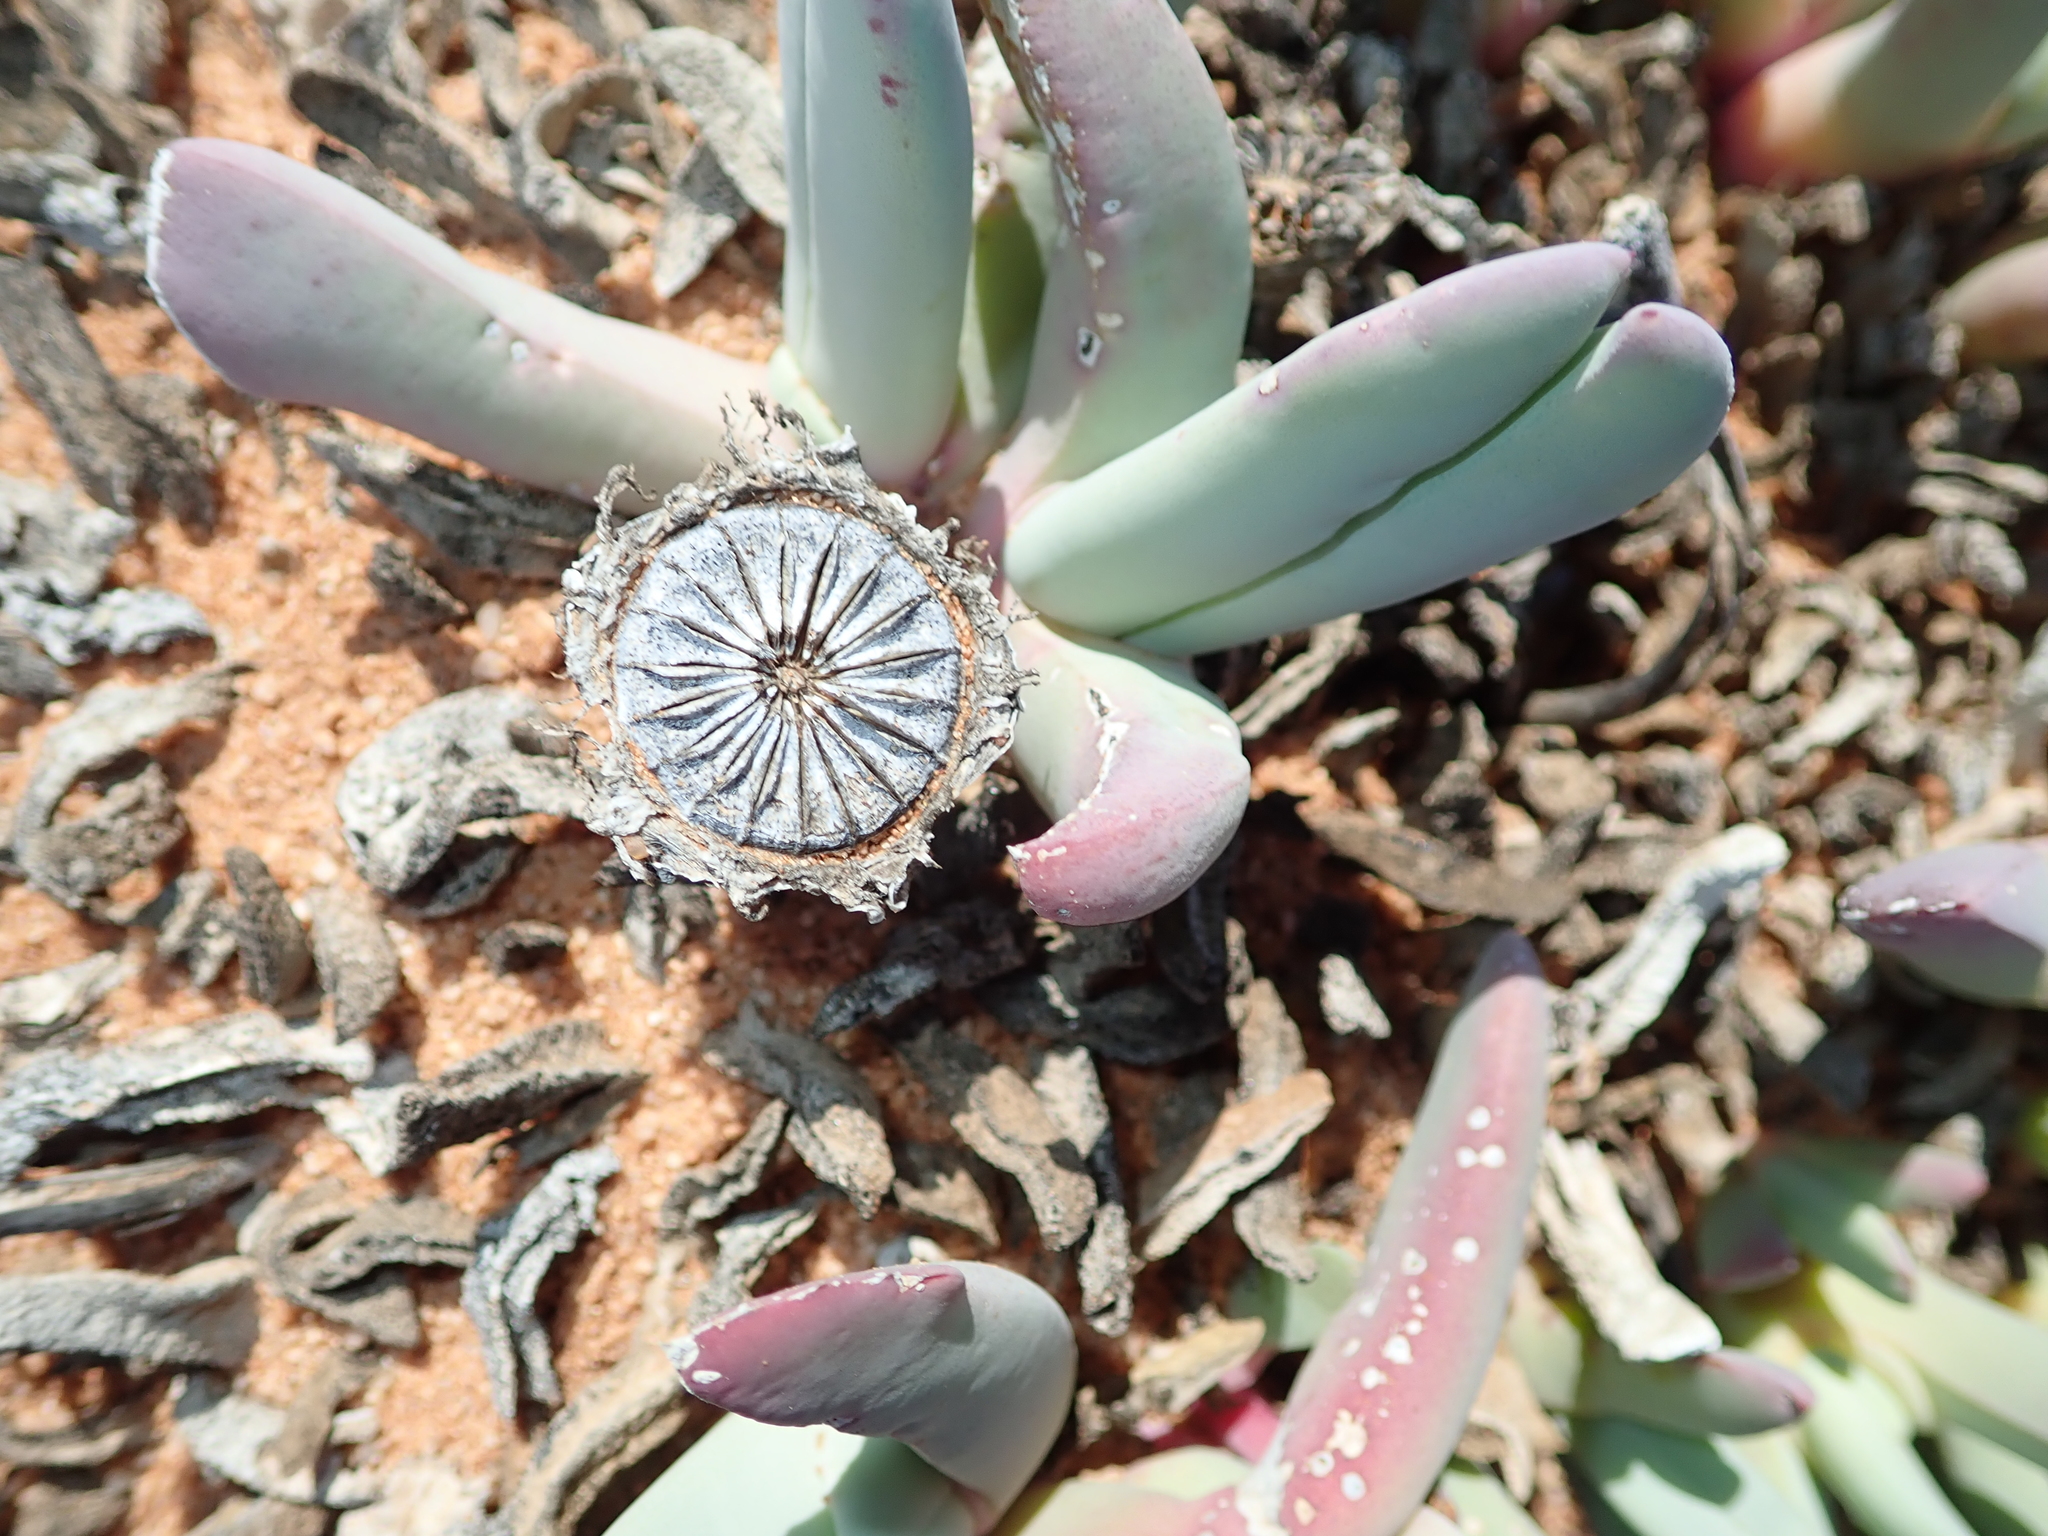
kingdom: Plantae
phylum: Tracheophyta
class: Magnoliopsida
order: Caryophyllales
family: Aizoaceae
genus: Cheiridopsis
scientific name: Cheiridopsis denticulata
